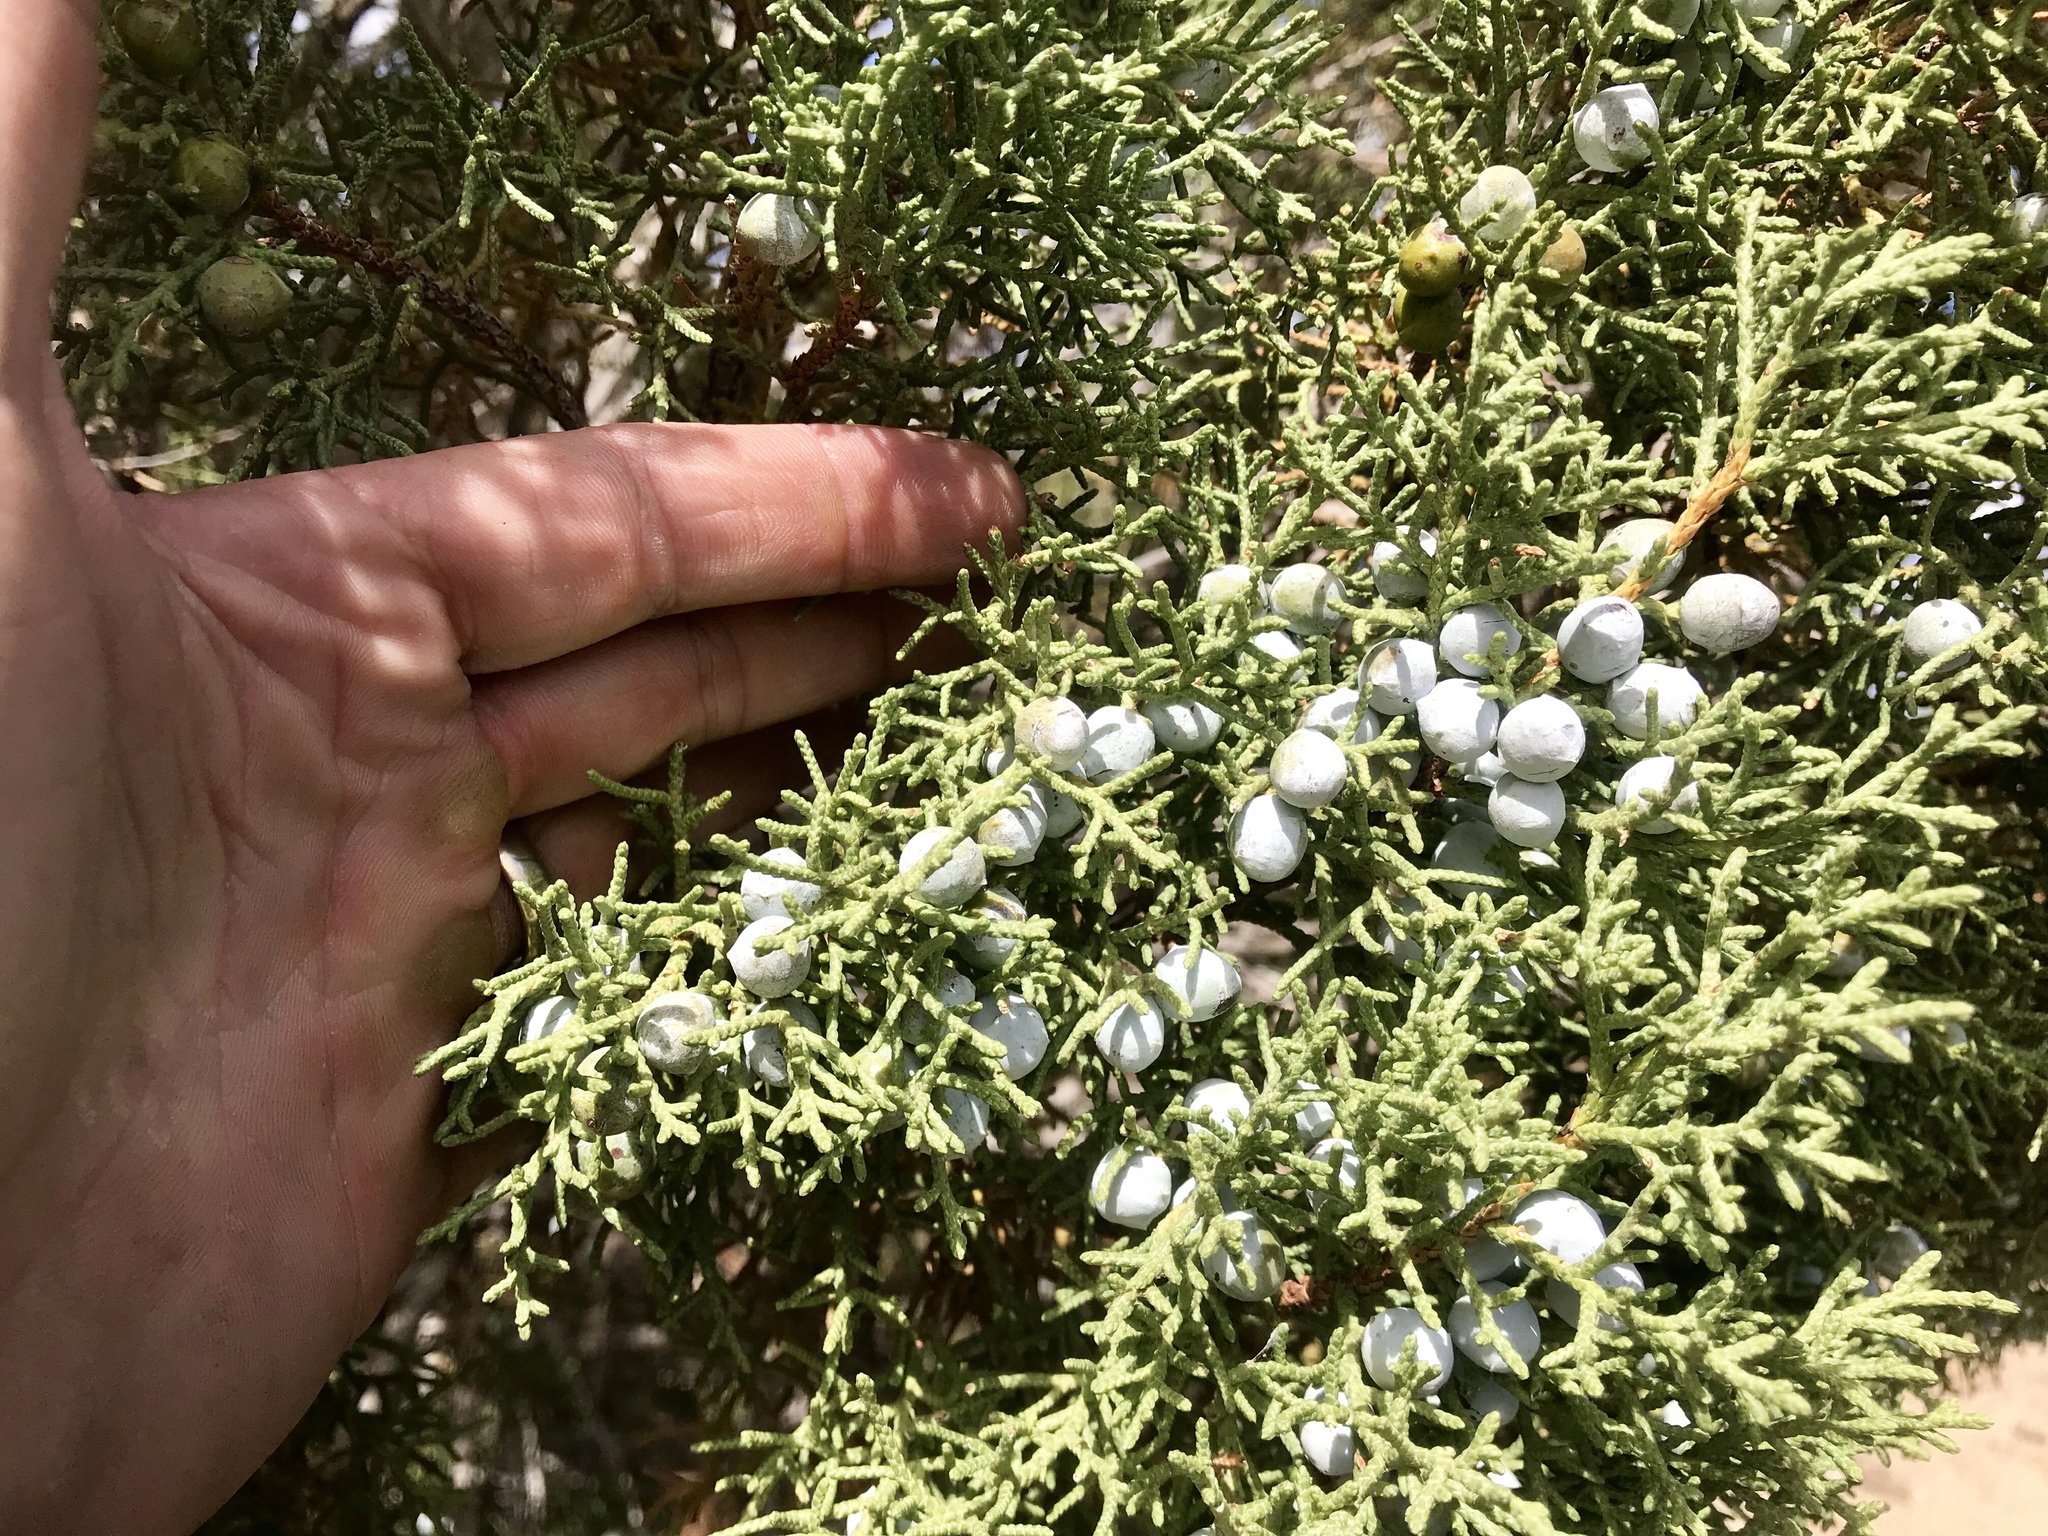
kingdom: Plantae
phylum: Tracheophyta
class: Pinopsida
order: Pinales
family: Cupressaceae
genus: Juniperus
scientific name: Juniperus osteosperma
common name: Utah juniper
